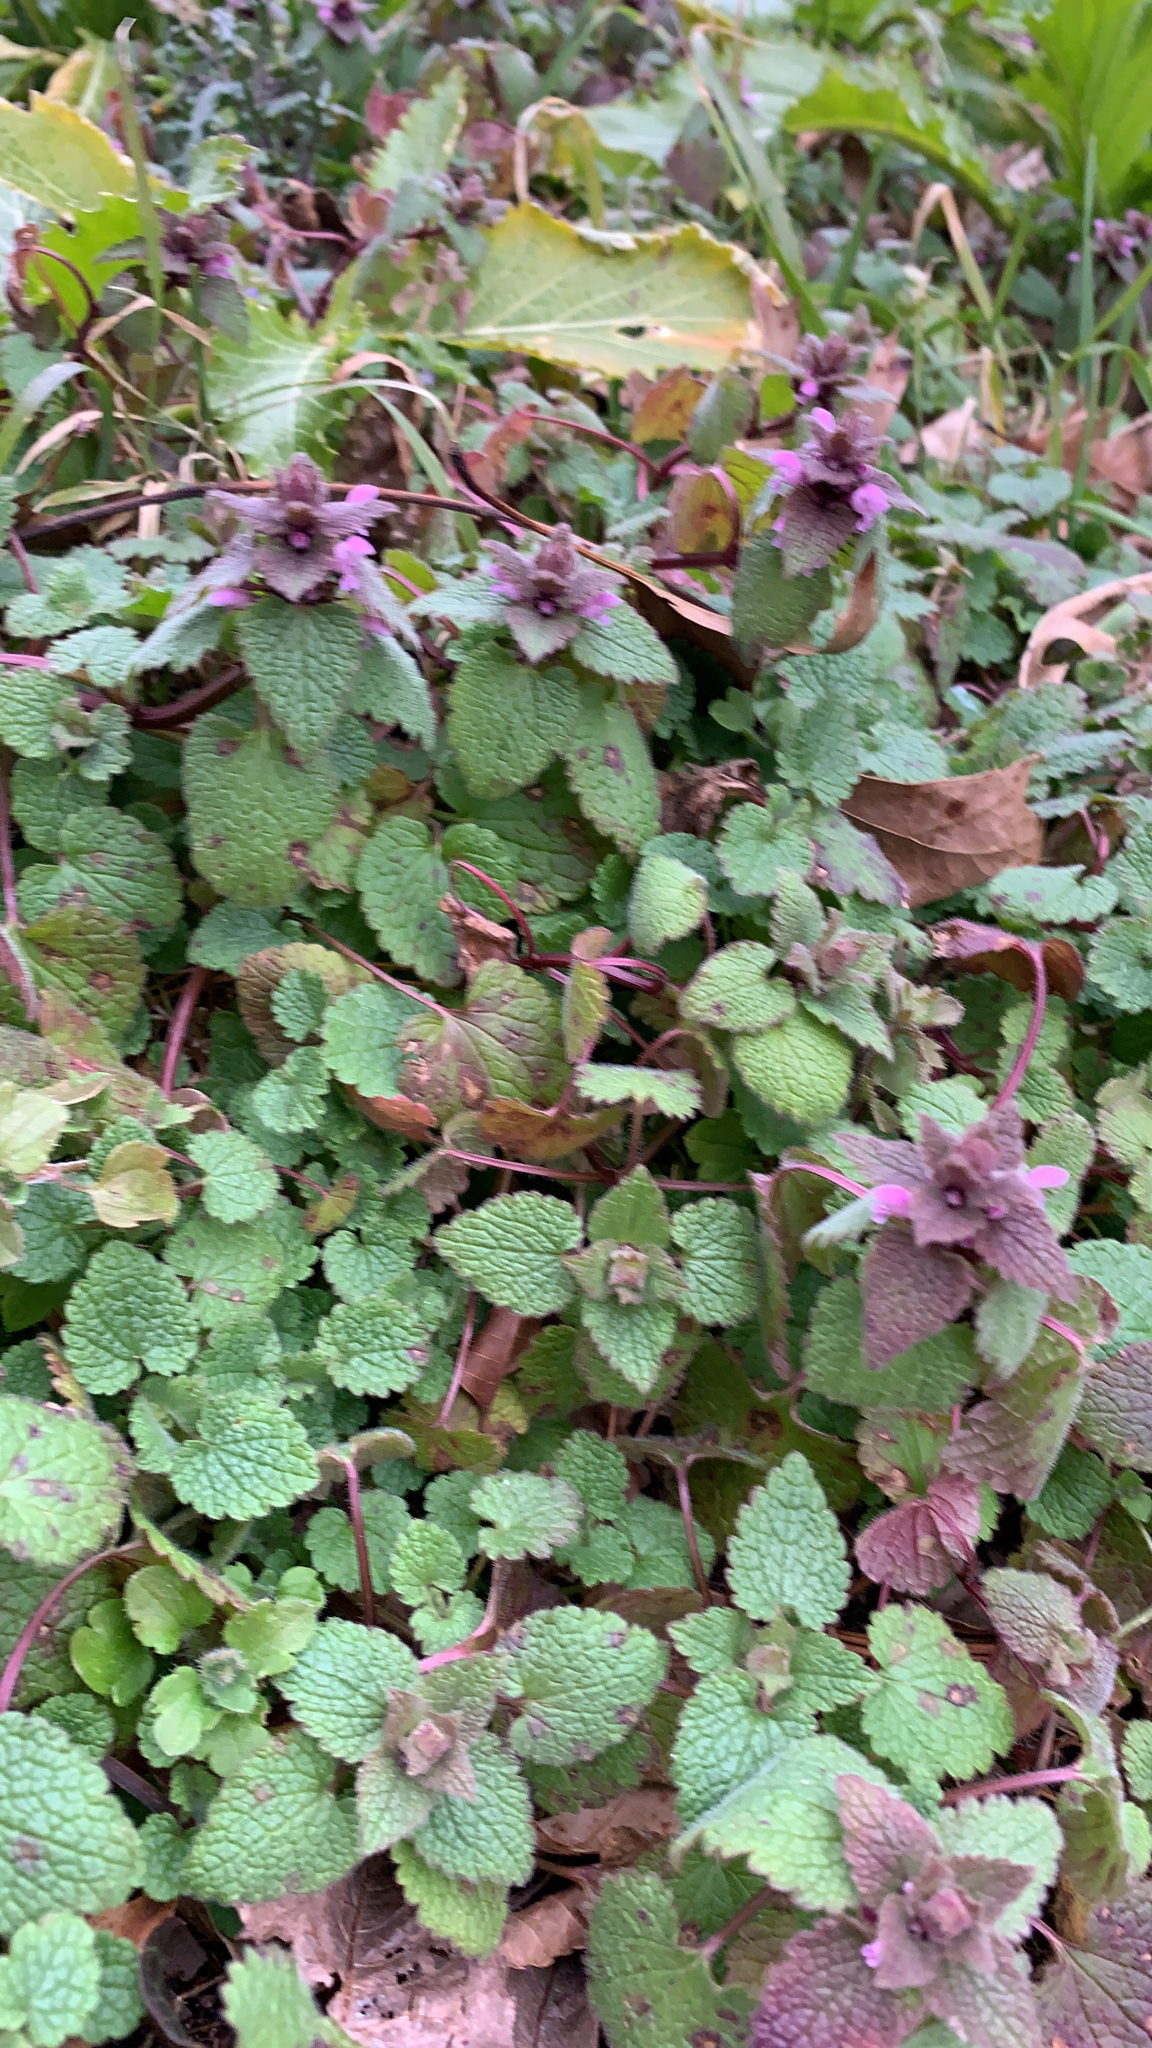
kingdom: Plantae
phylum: Tracheophyta
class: Magnoliopsida
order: Lamiales
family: Lamiaceae
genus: Lamium
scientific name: Lamium purpureum
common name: Red dead-nettle
